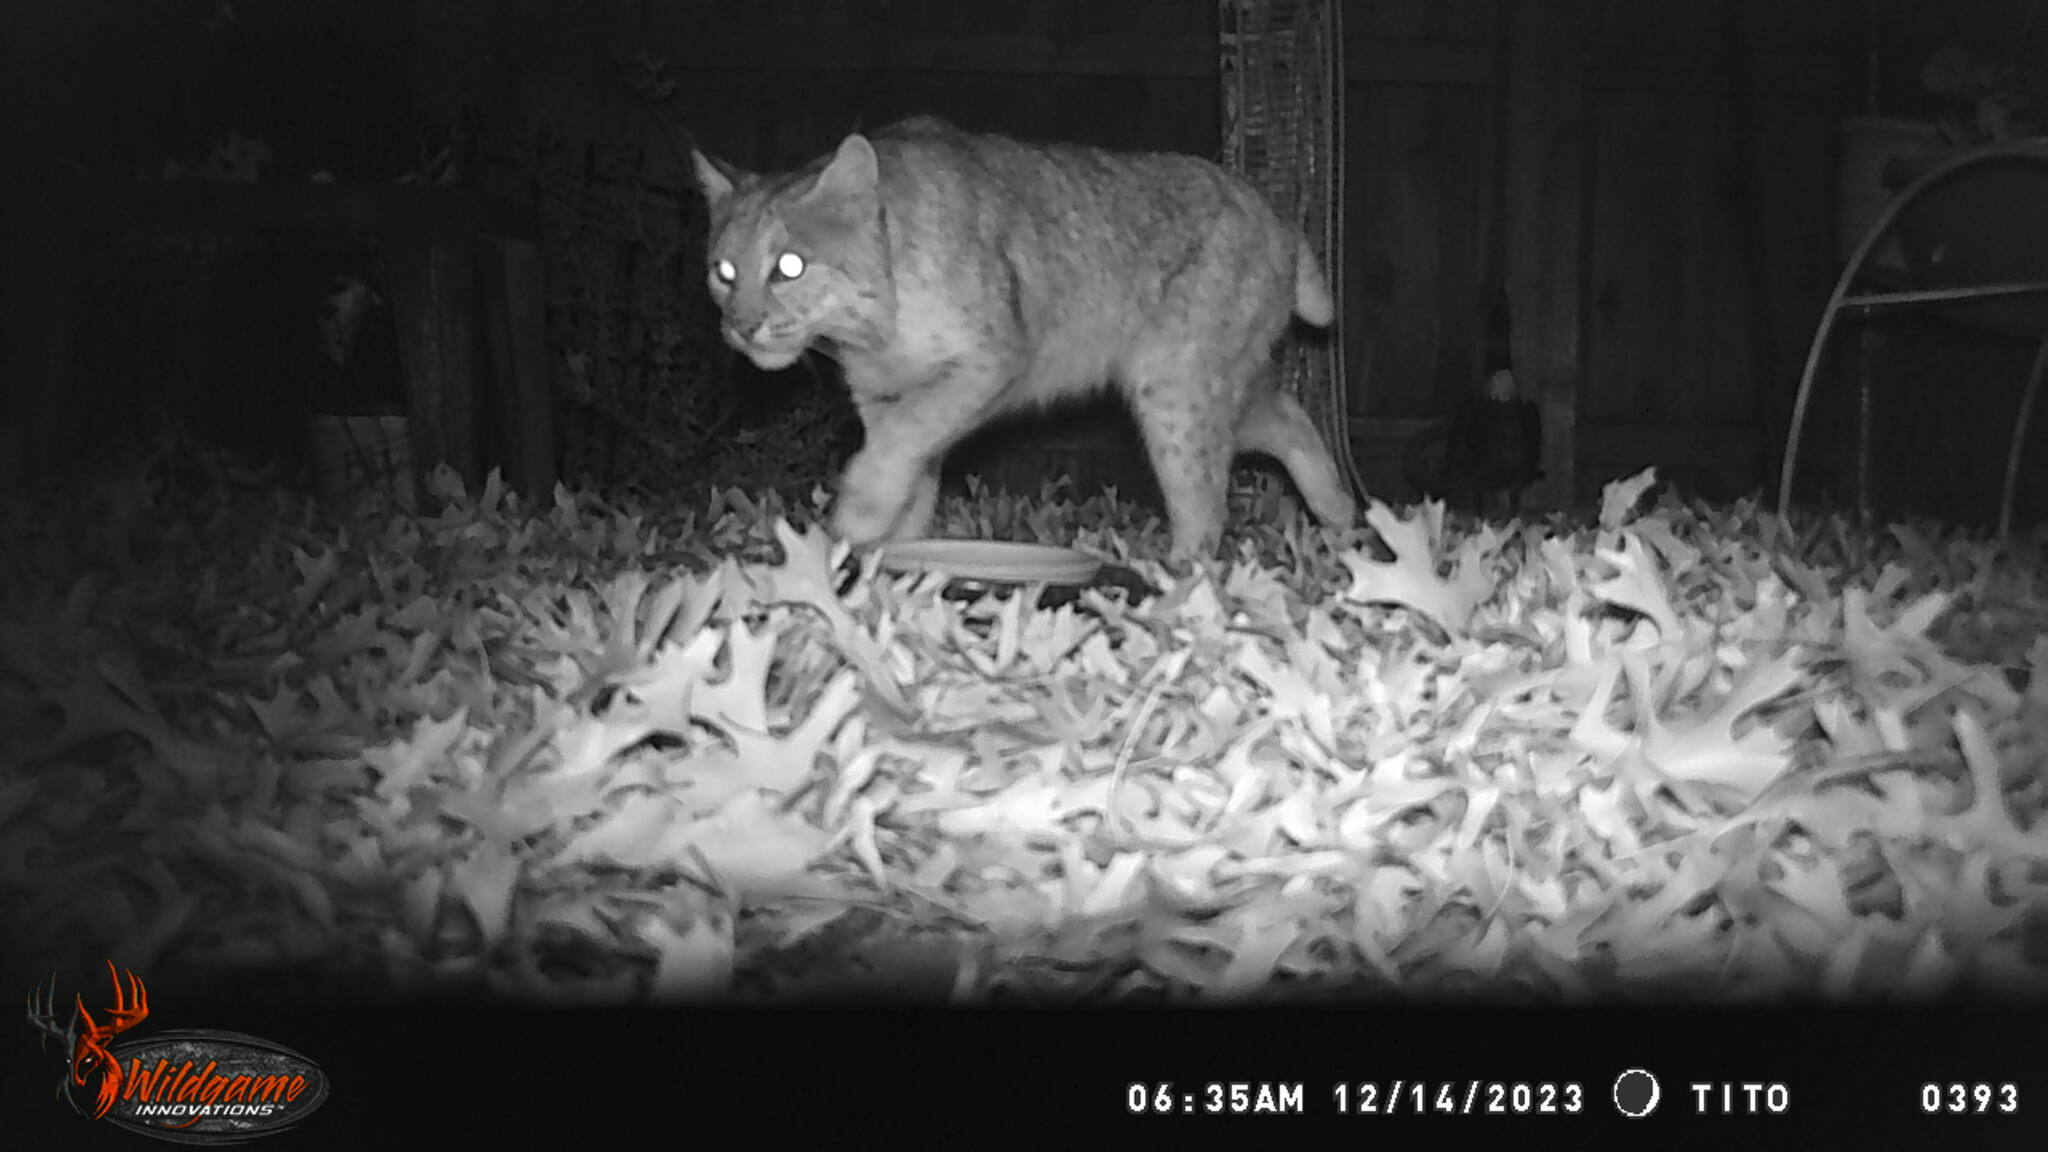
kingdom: Animalia
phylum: Chordata
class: Mammalia
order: Carnivora
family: Felidae
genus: Lynx
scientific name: Lynx rufus
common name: Bobcat
